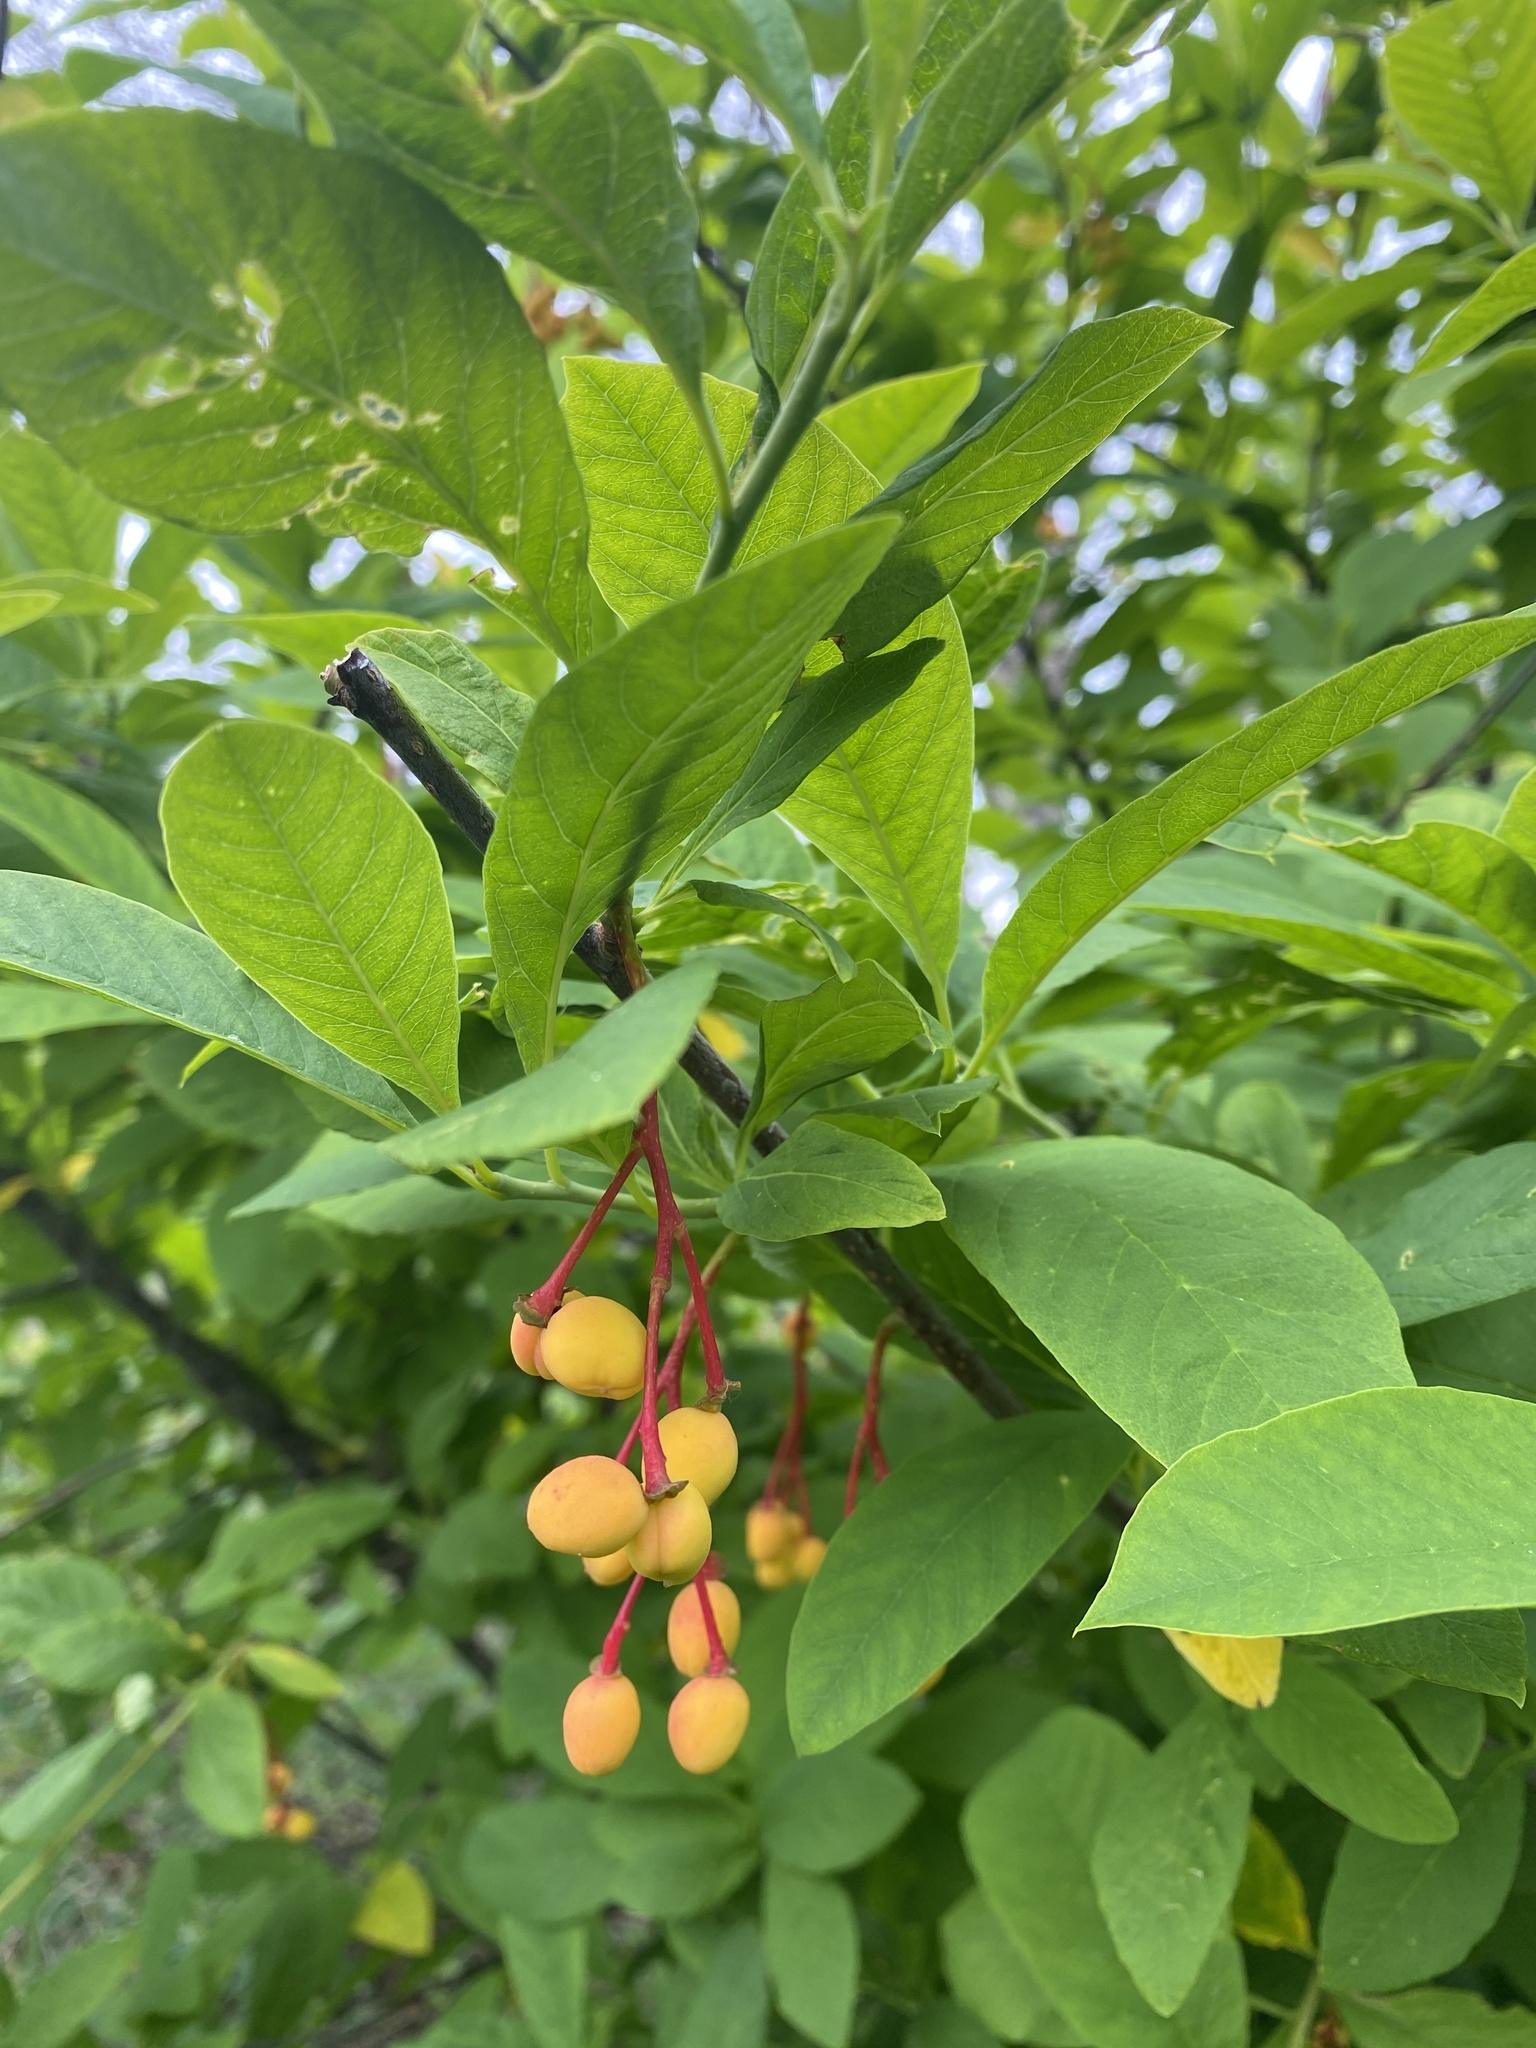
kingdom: Plantae
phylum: Tracheophyta
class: Magnoliopsida
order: Rosales
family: Rosaceae
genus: Oemleria
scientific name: Oemleria cerasiformis
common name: Osoberry
